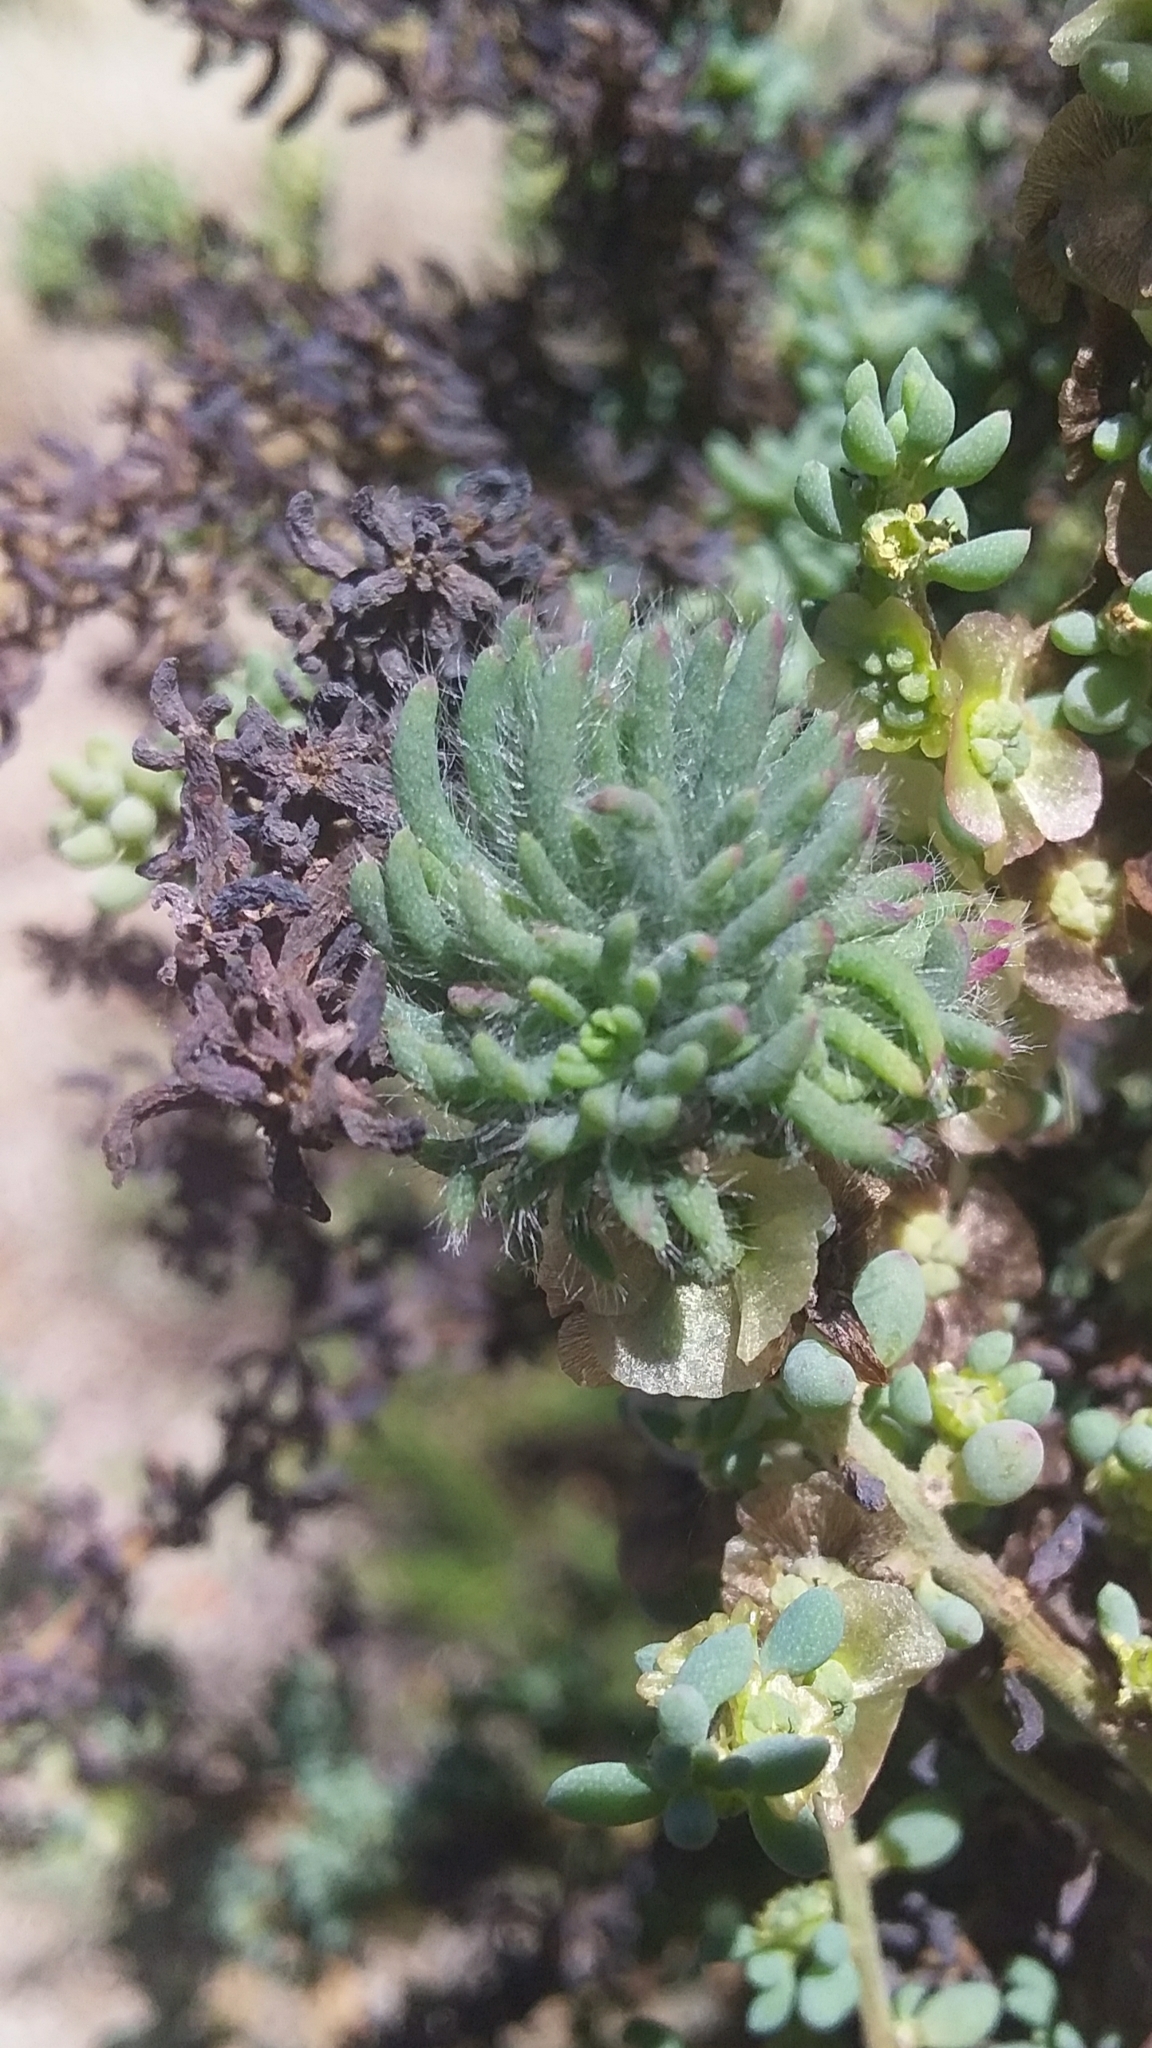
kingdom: Animalia
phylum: Arthropoda
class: Insecta
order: Diptera
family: Cecidomyiidae
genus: Dactylasioptera
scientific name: Dactylasioptera milnae
